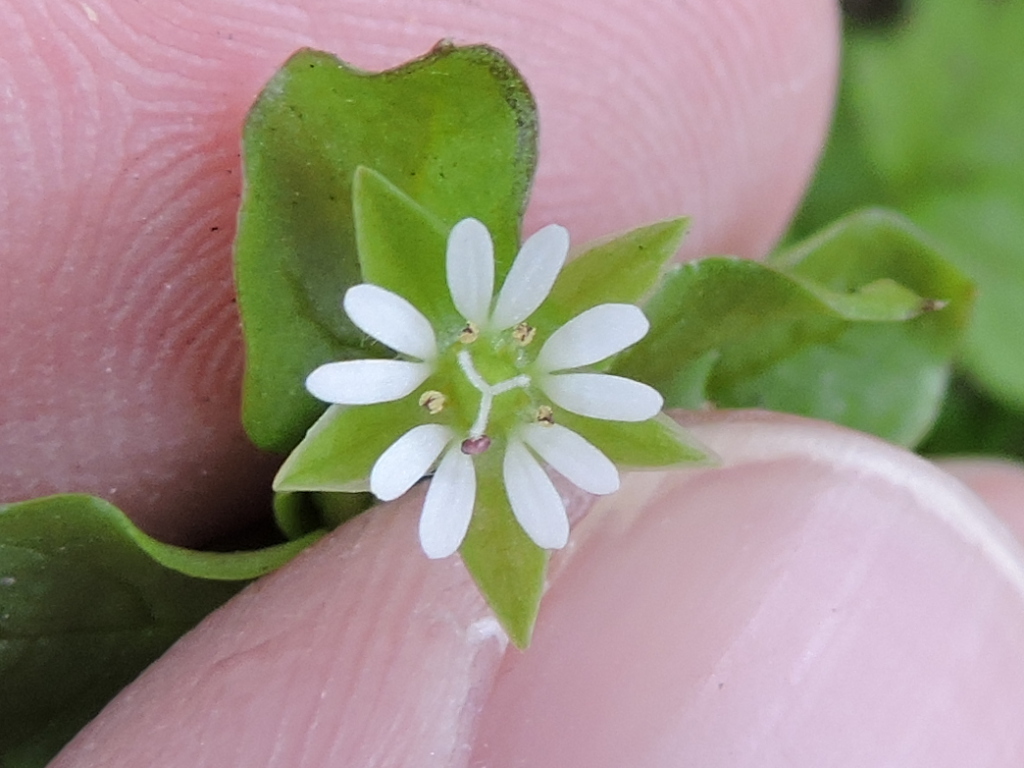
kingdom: Plantae
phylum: Tracheophyta
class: Magnoliopsida
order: Caryophyllales
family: Caryophyllaceae
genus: Stellaria
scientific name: Stellaria media
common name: Common chickweed
